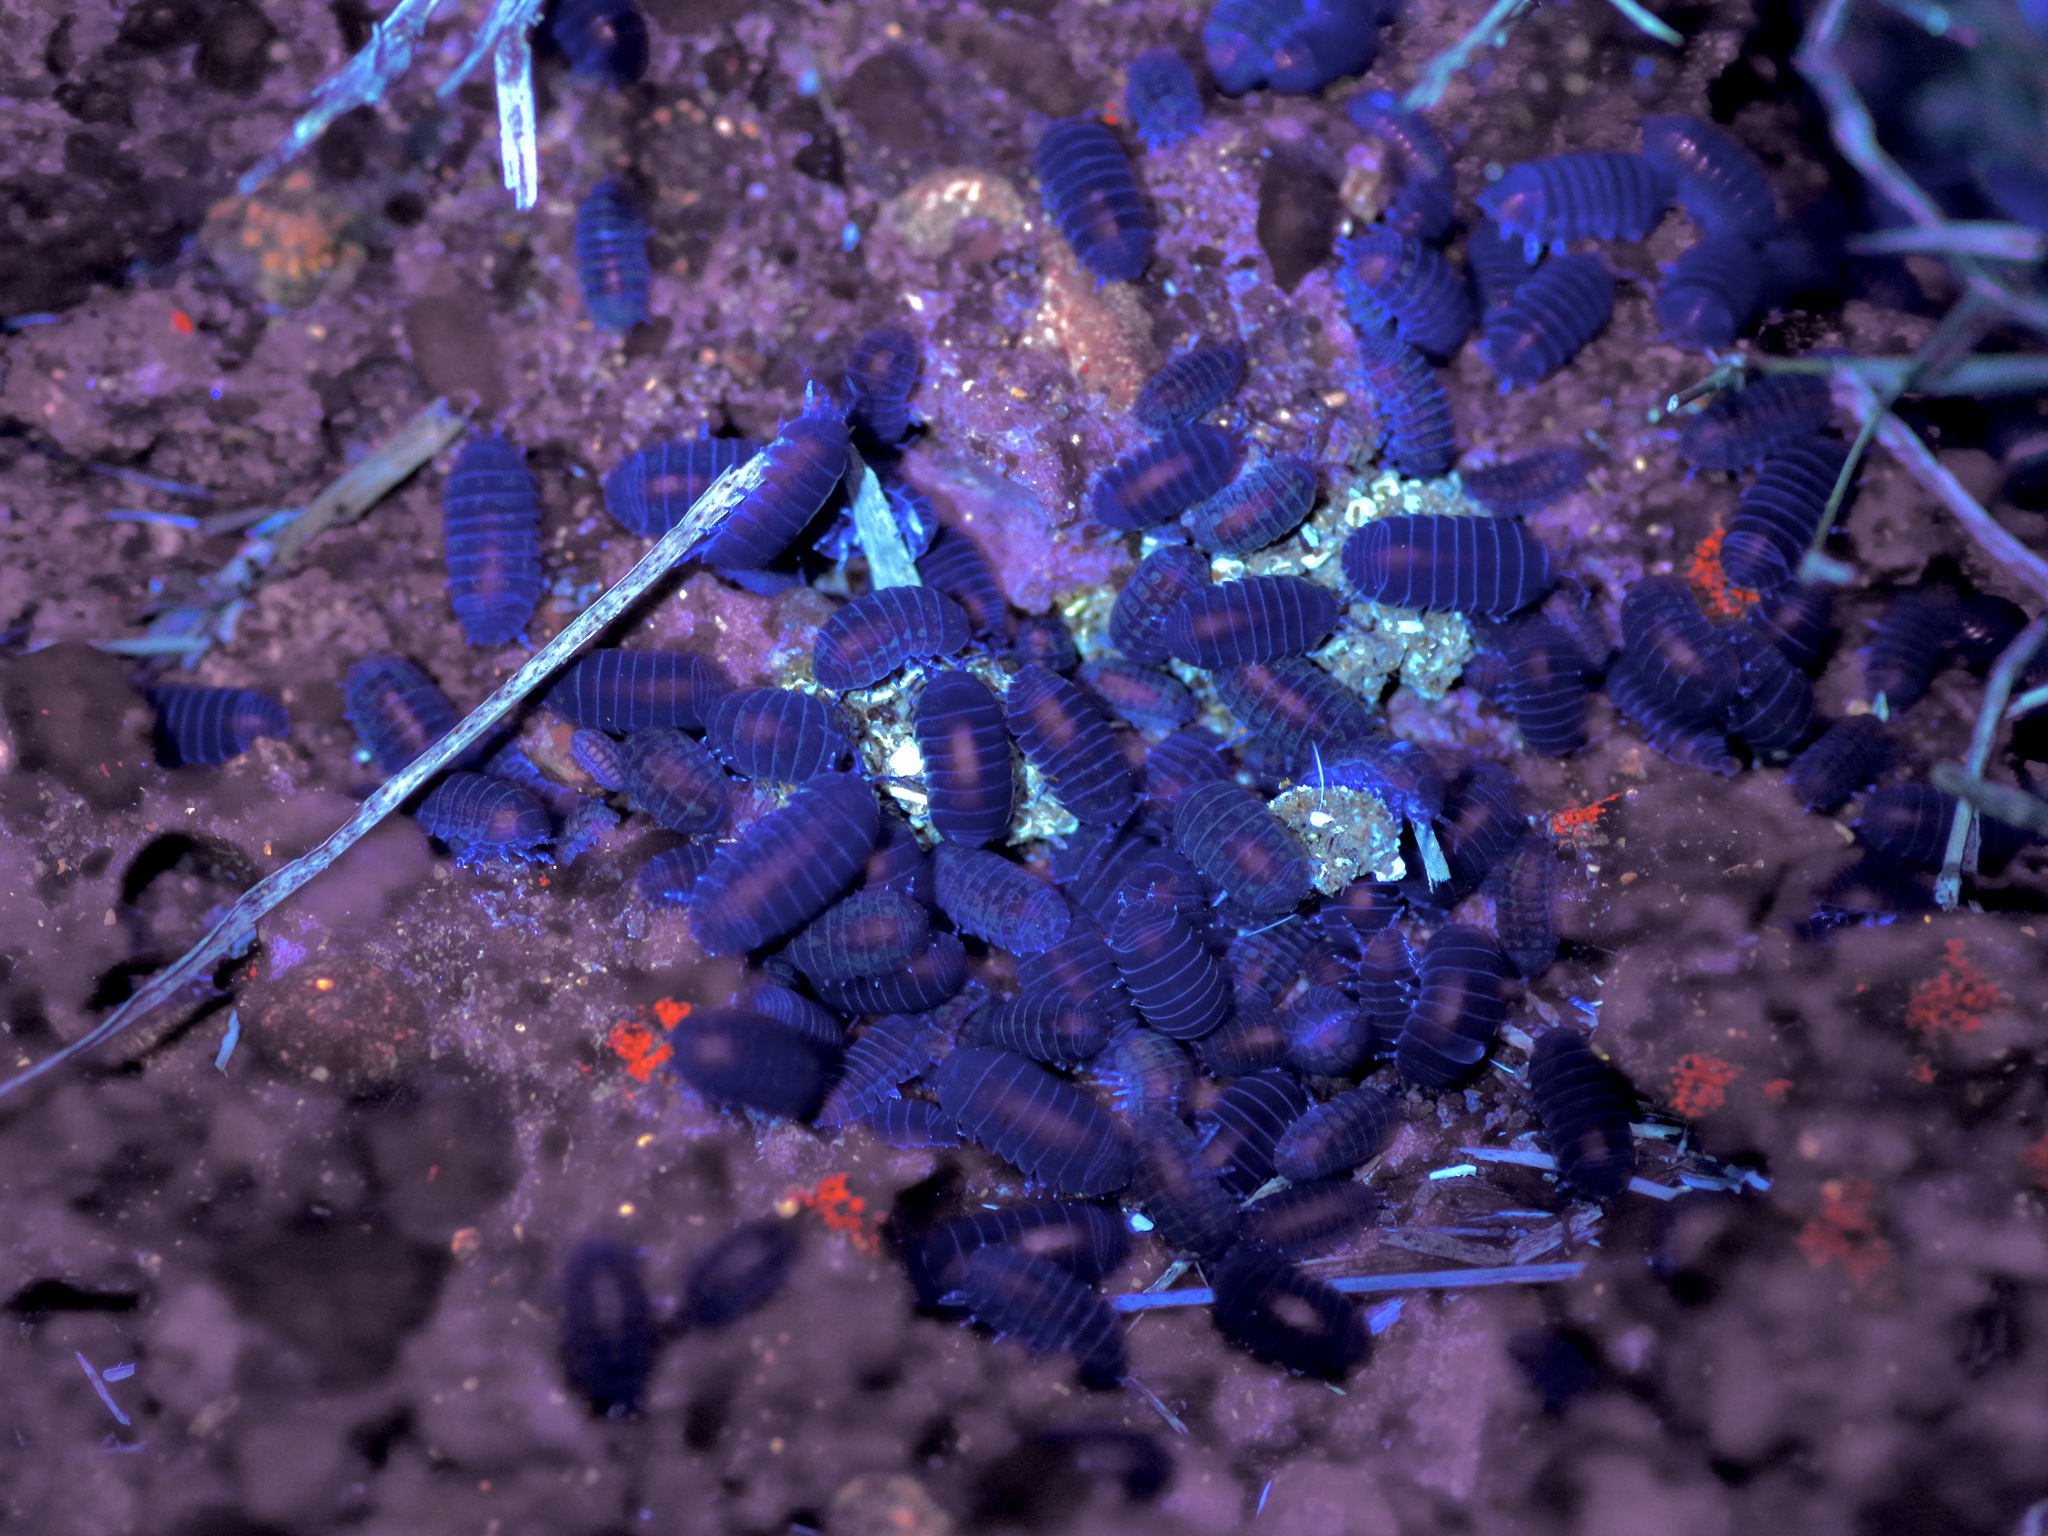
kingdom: Animalia
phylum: Arthropoda
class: Malacostraca
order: Isopoda
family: Armadillidiidae
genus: Armadillidium
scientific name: Armadillidium vulgare
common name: Common pill woodlouse
